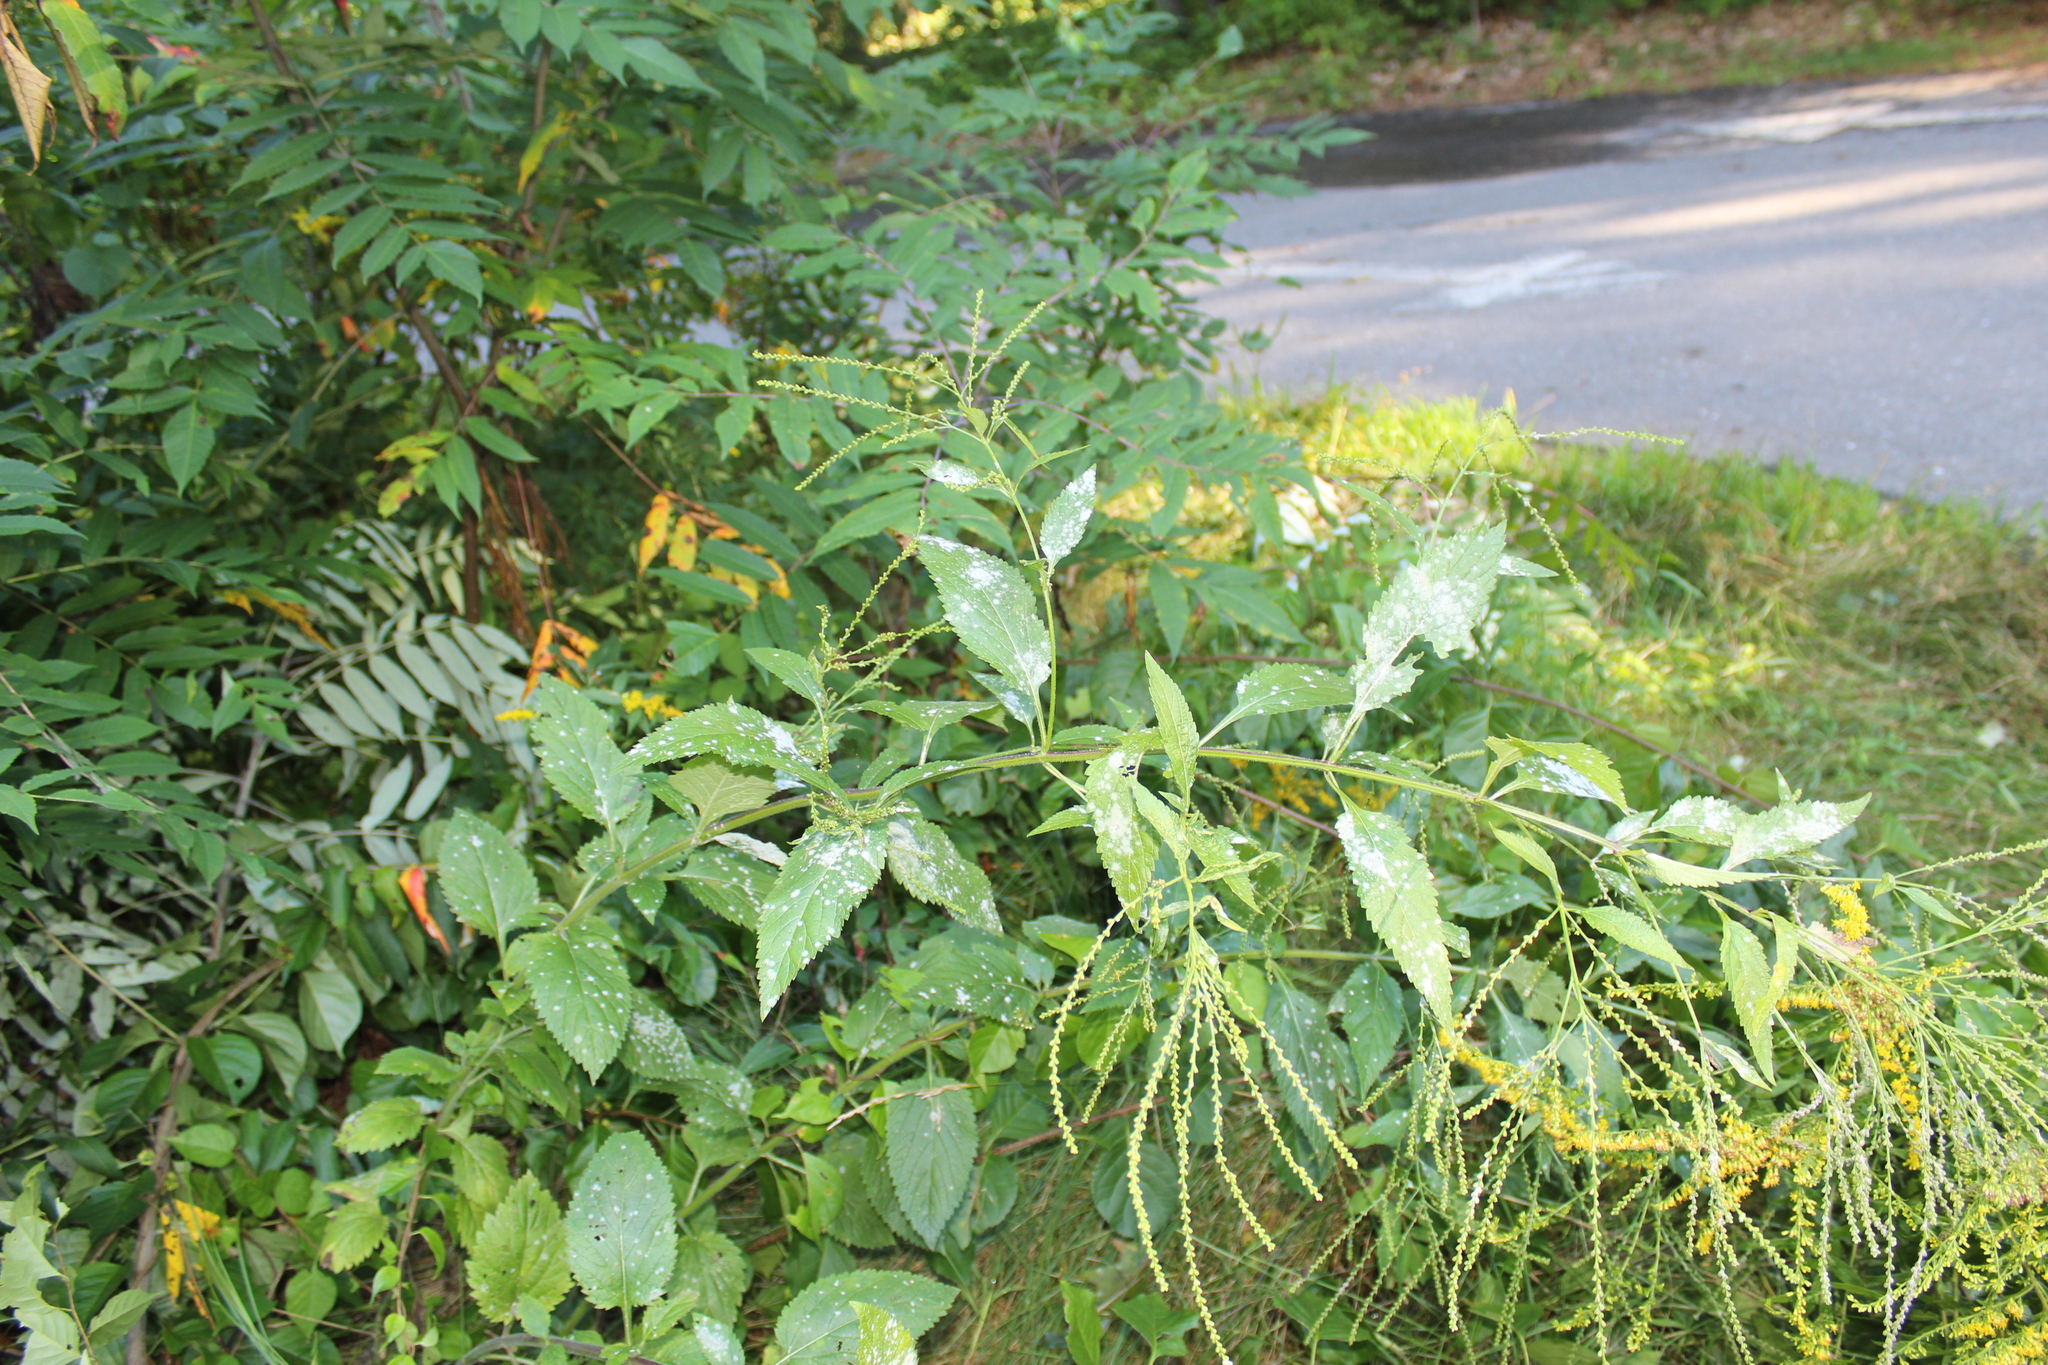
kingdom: Fungi
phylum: Ascomycota
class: Leotiomycetes
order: Helotiales
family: Erysiphaceae
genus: Golovinomyces
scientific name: Golovinomyces verbenae
